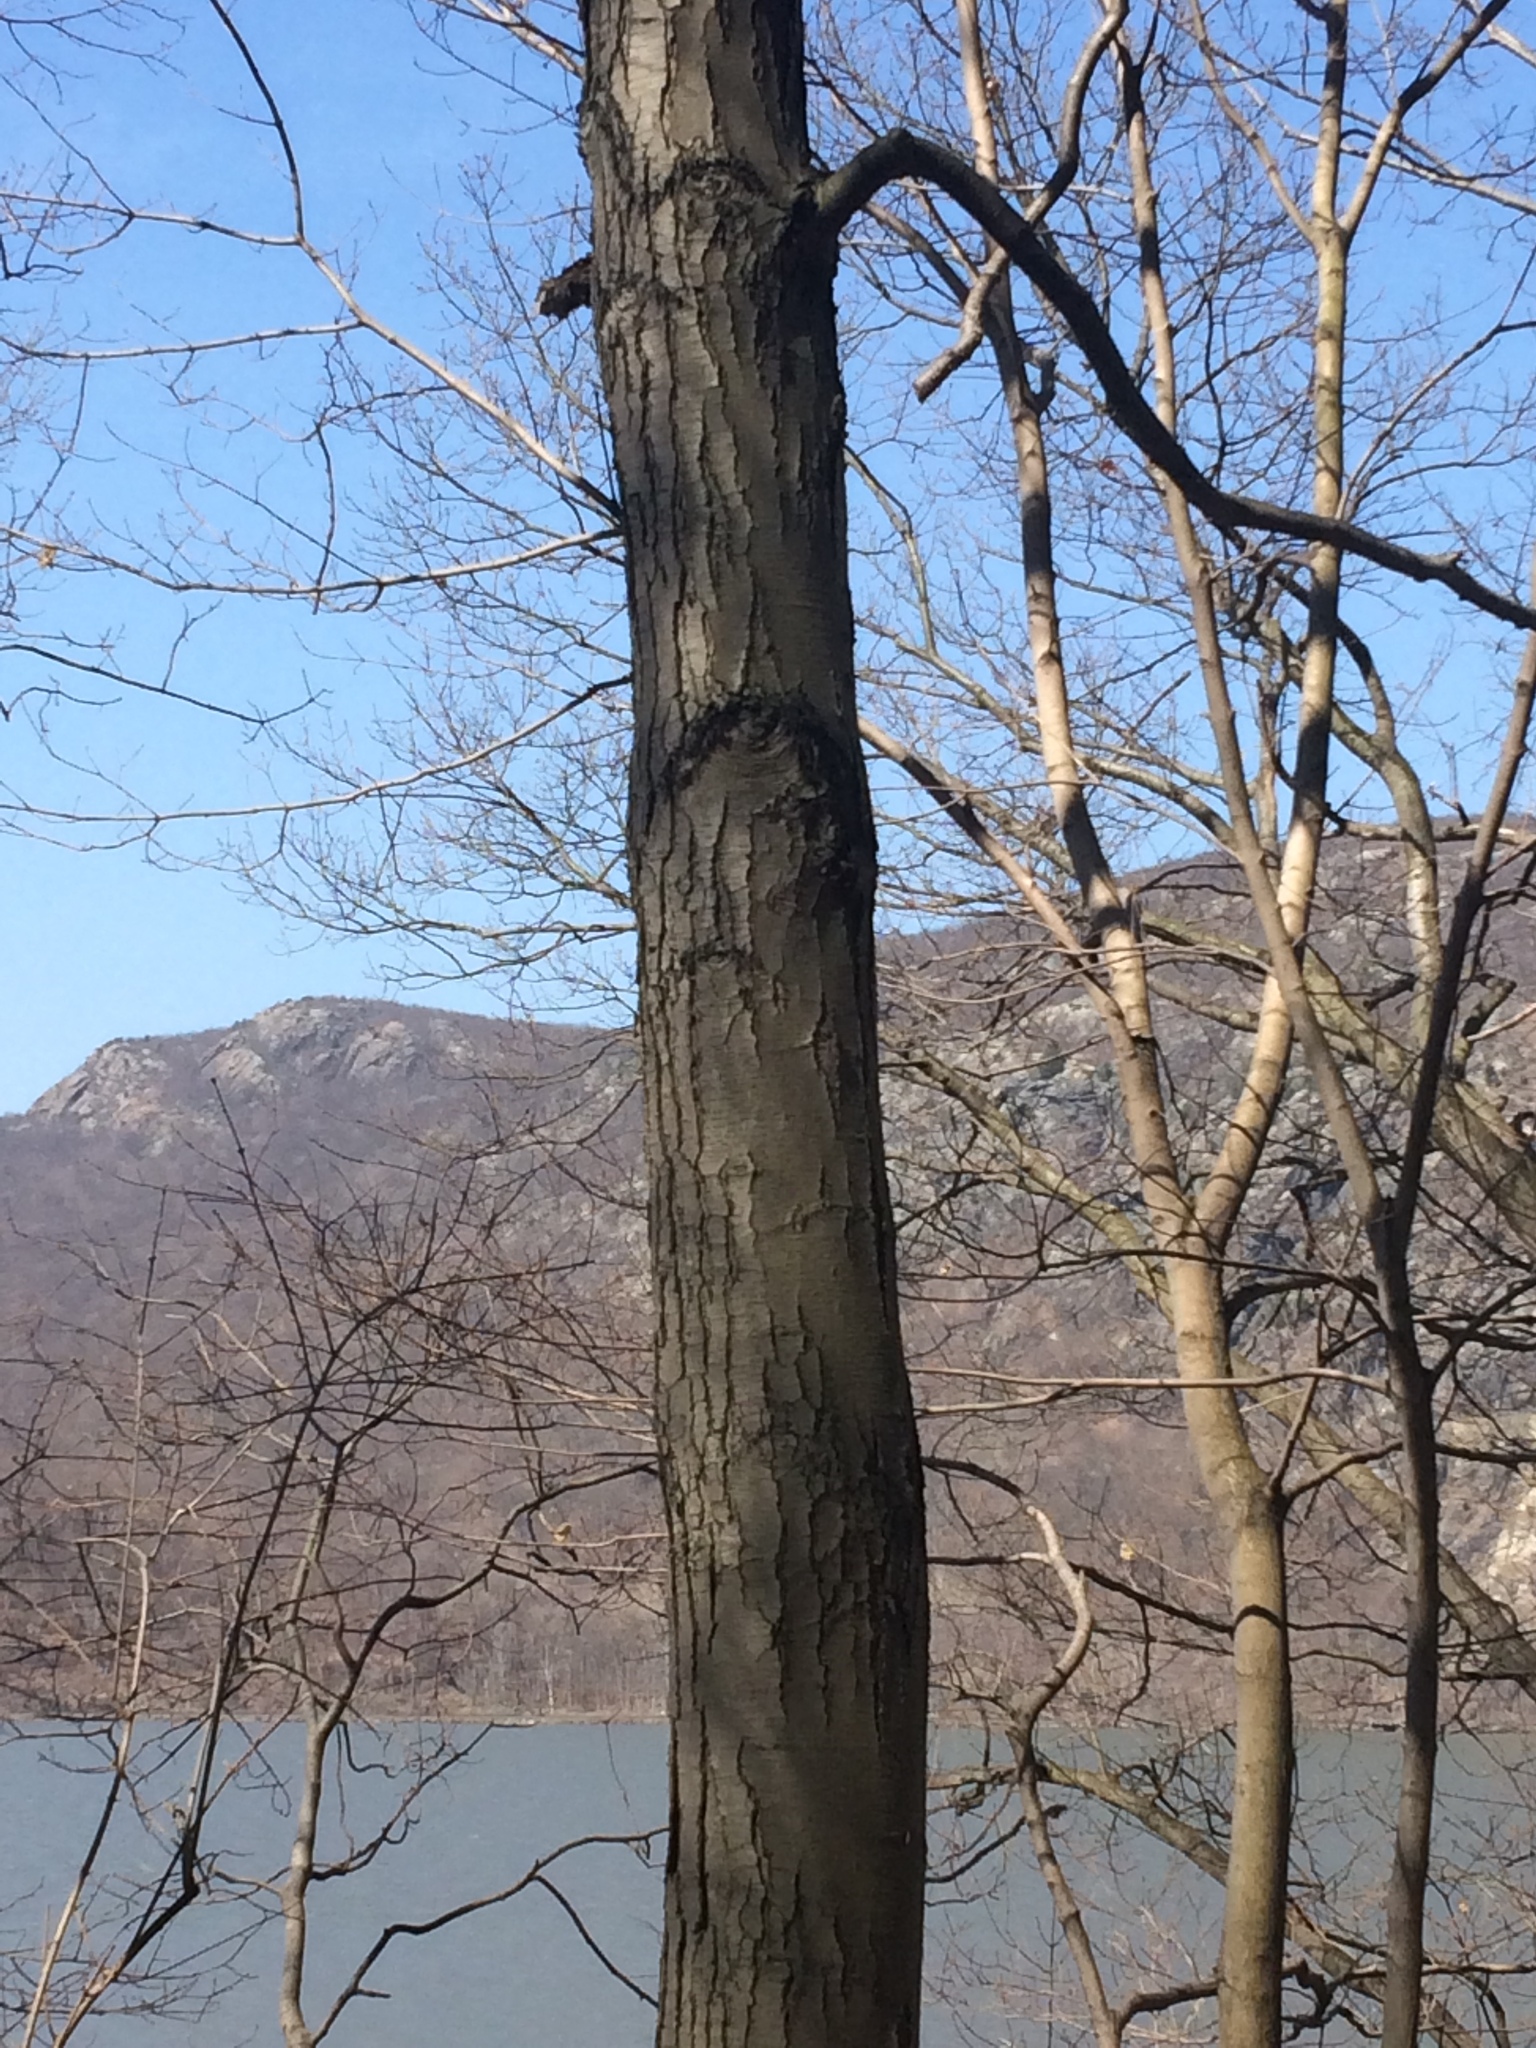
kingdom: Plantae
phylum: Tracheophyta
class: Magnoliopsida
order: Fagales
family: Betulaceae
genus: Betula
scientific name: Betula lenta
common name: Black birch
